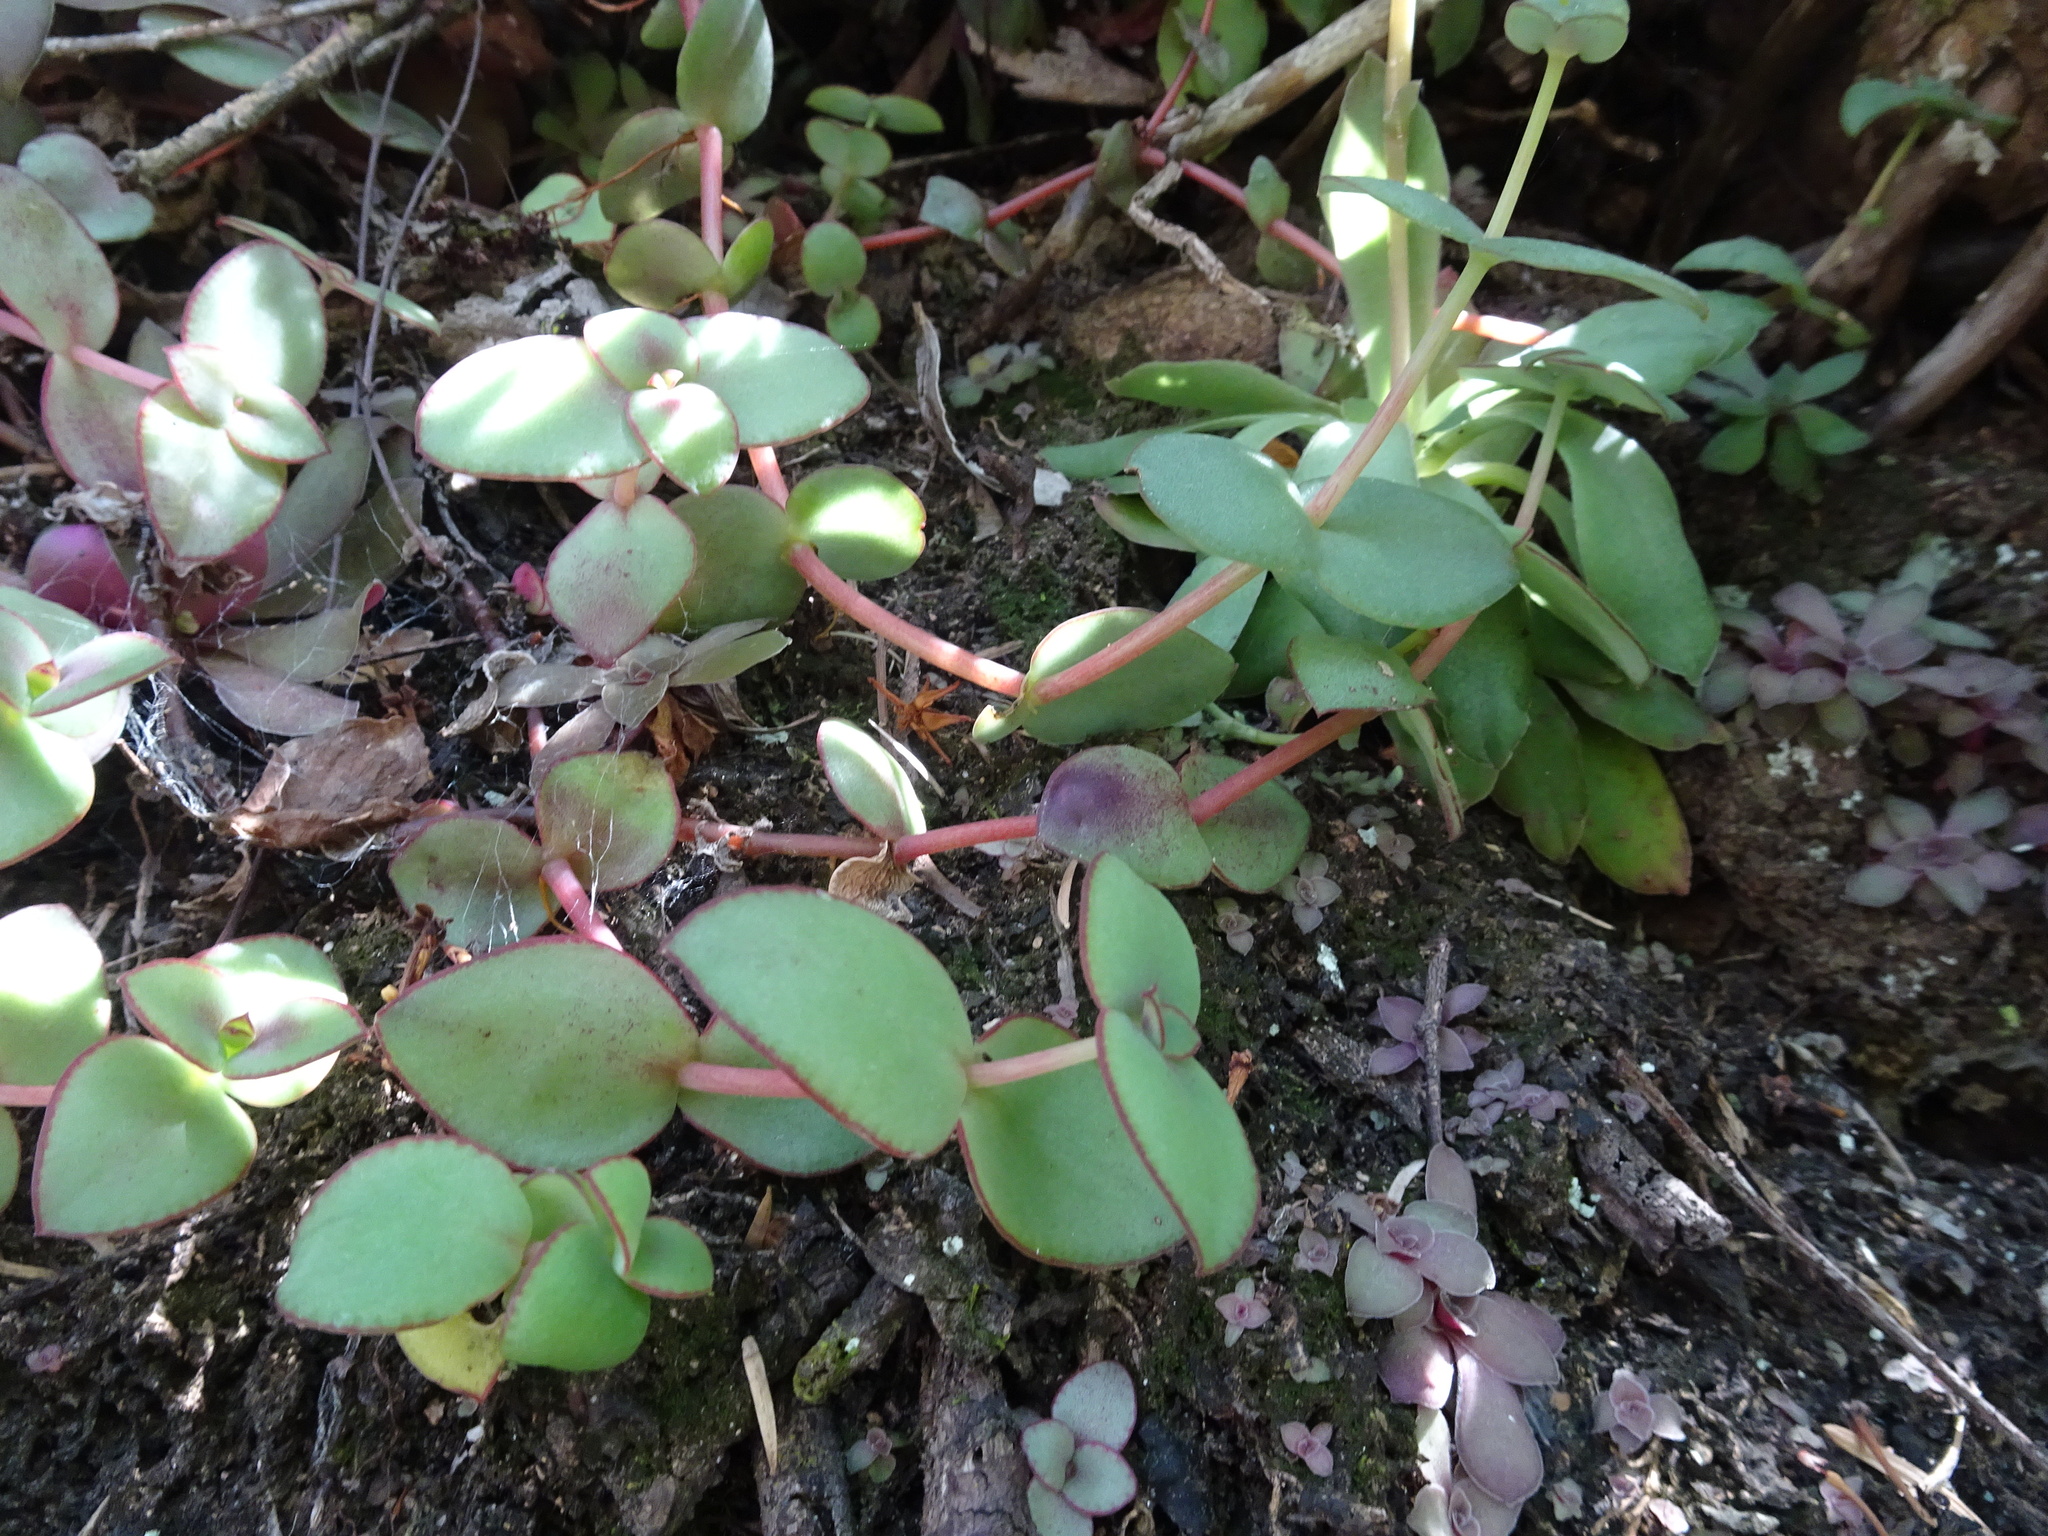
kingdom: Plantae
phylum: Tracheophyta
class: Magnoliopsida
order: Saxifragales
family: Crassulaceae
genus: Crassula
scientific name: Crassula pellucida
